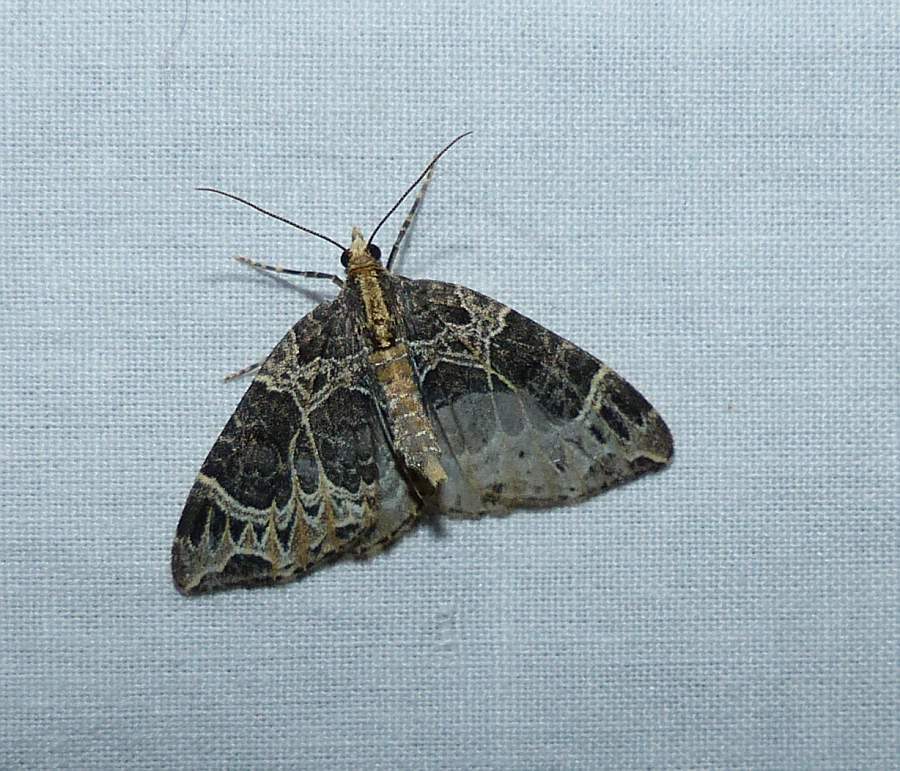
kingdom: Animalia
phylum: Arthropoda
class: Insecta
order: Lepidoptera
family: Geometridae
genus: Ecliptopera
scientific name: Ecliptopera silaceata
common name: Small phoenix
